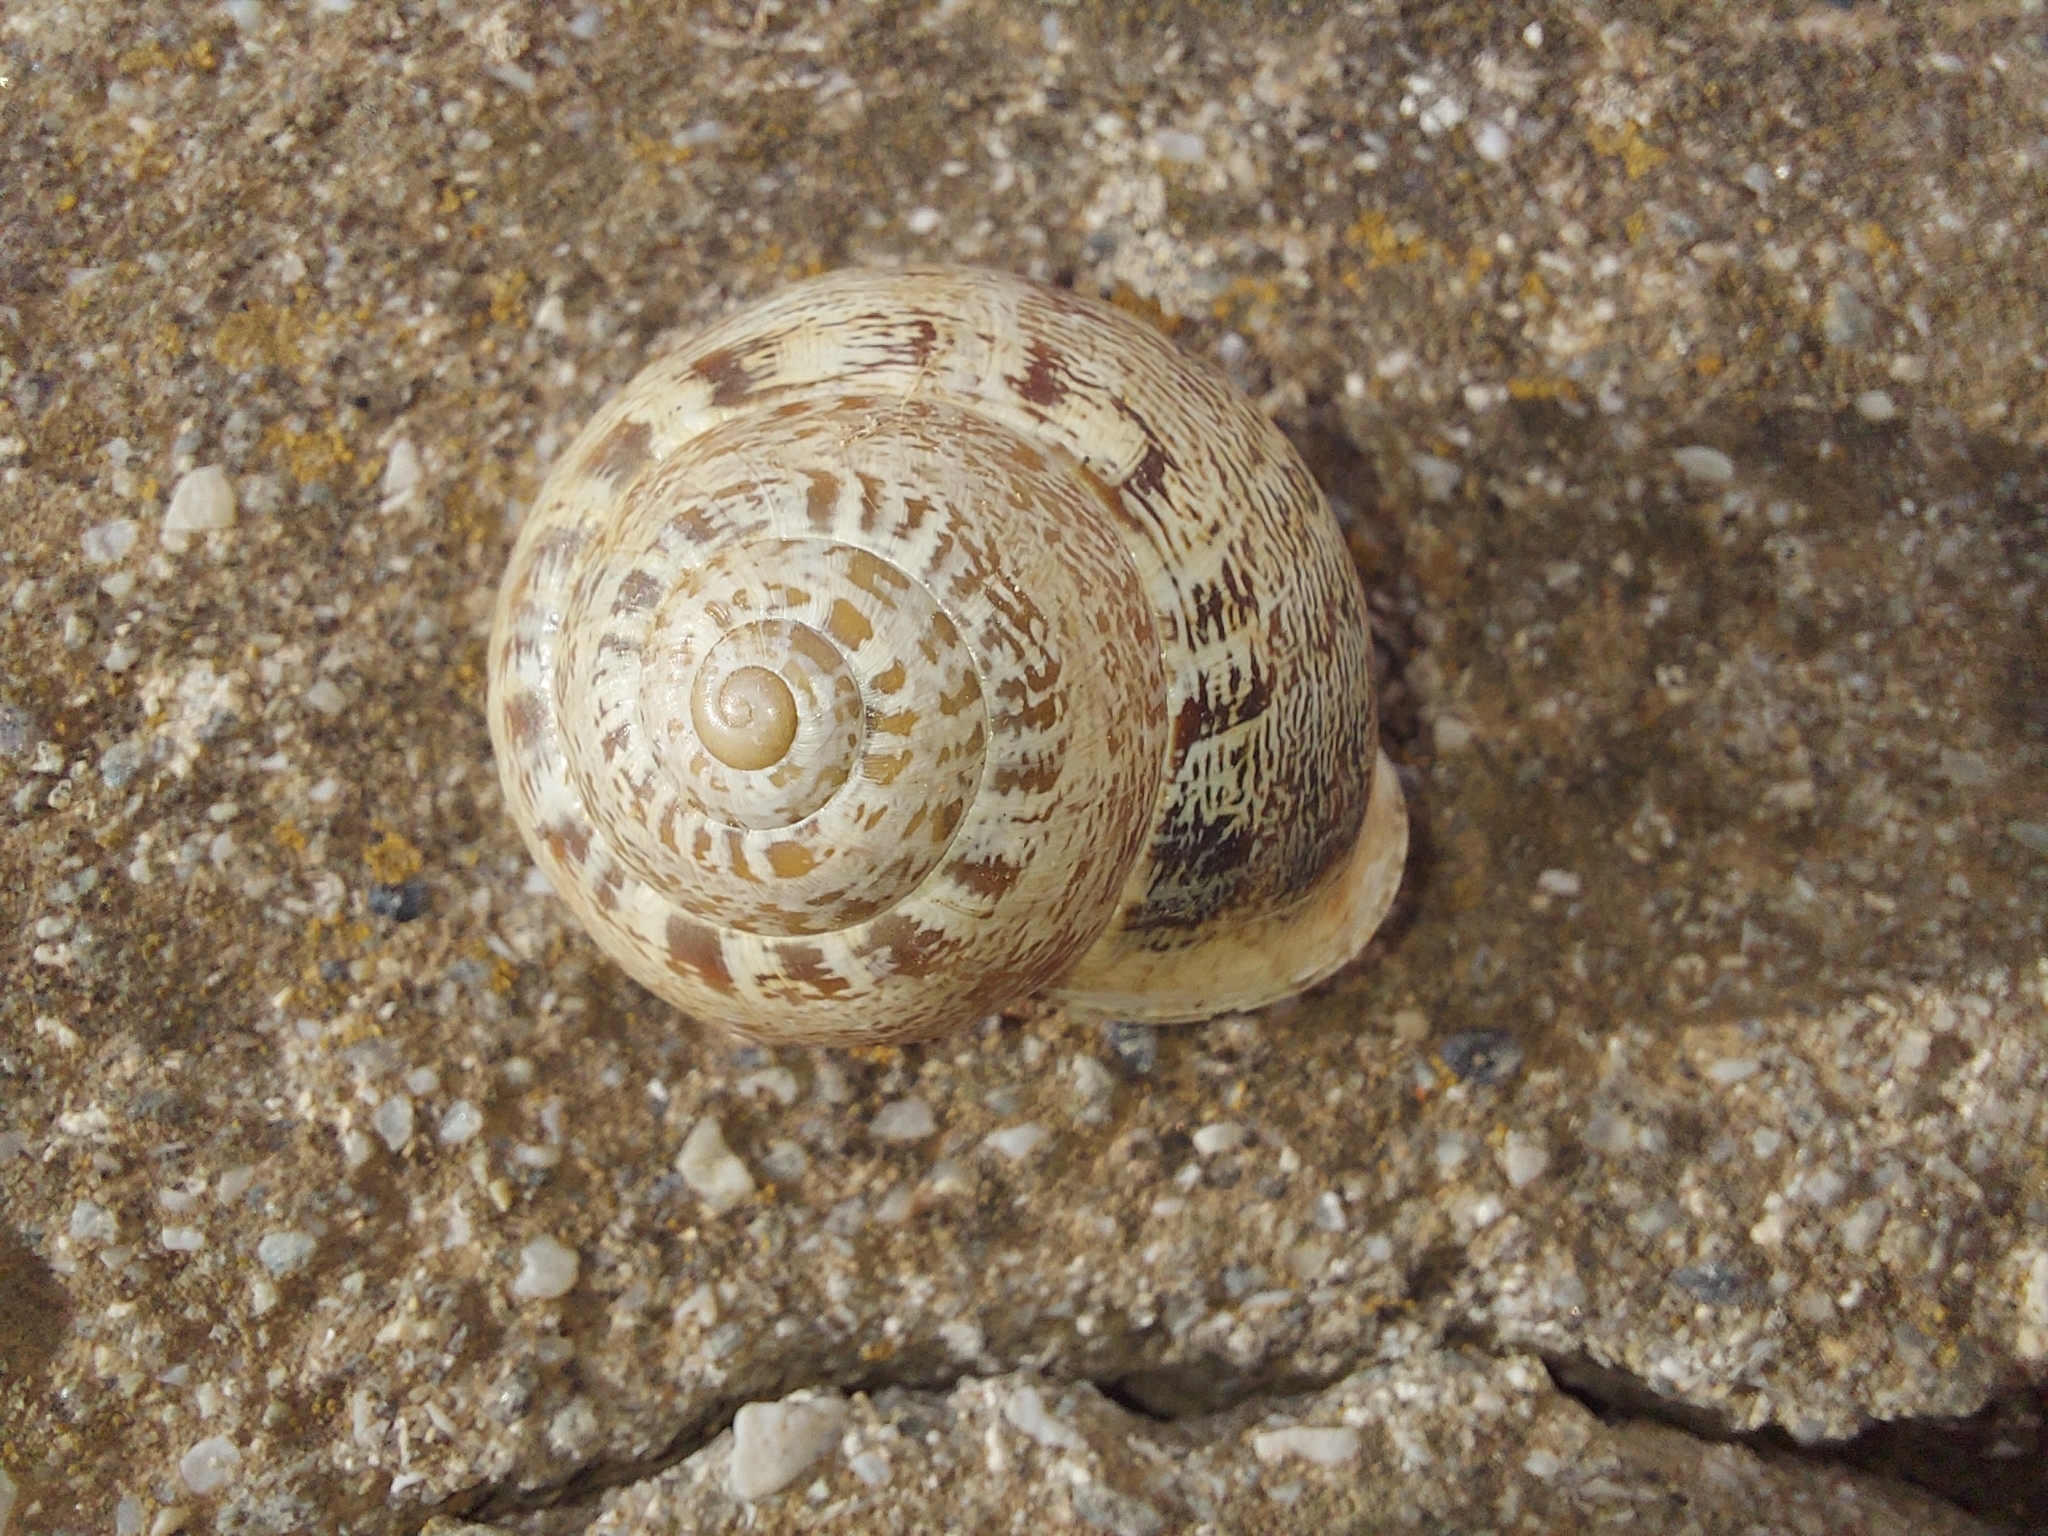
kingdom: Animalia
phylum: Mollusca
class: Gastropoda
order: Stylommatophora
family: Helicidae
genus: Eobania
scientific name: Eobania vermiculata
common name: Chocolateband snail
